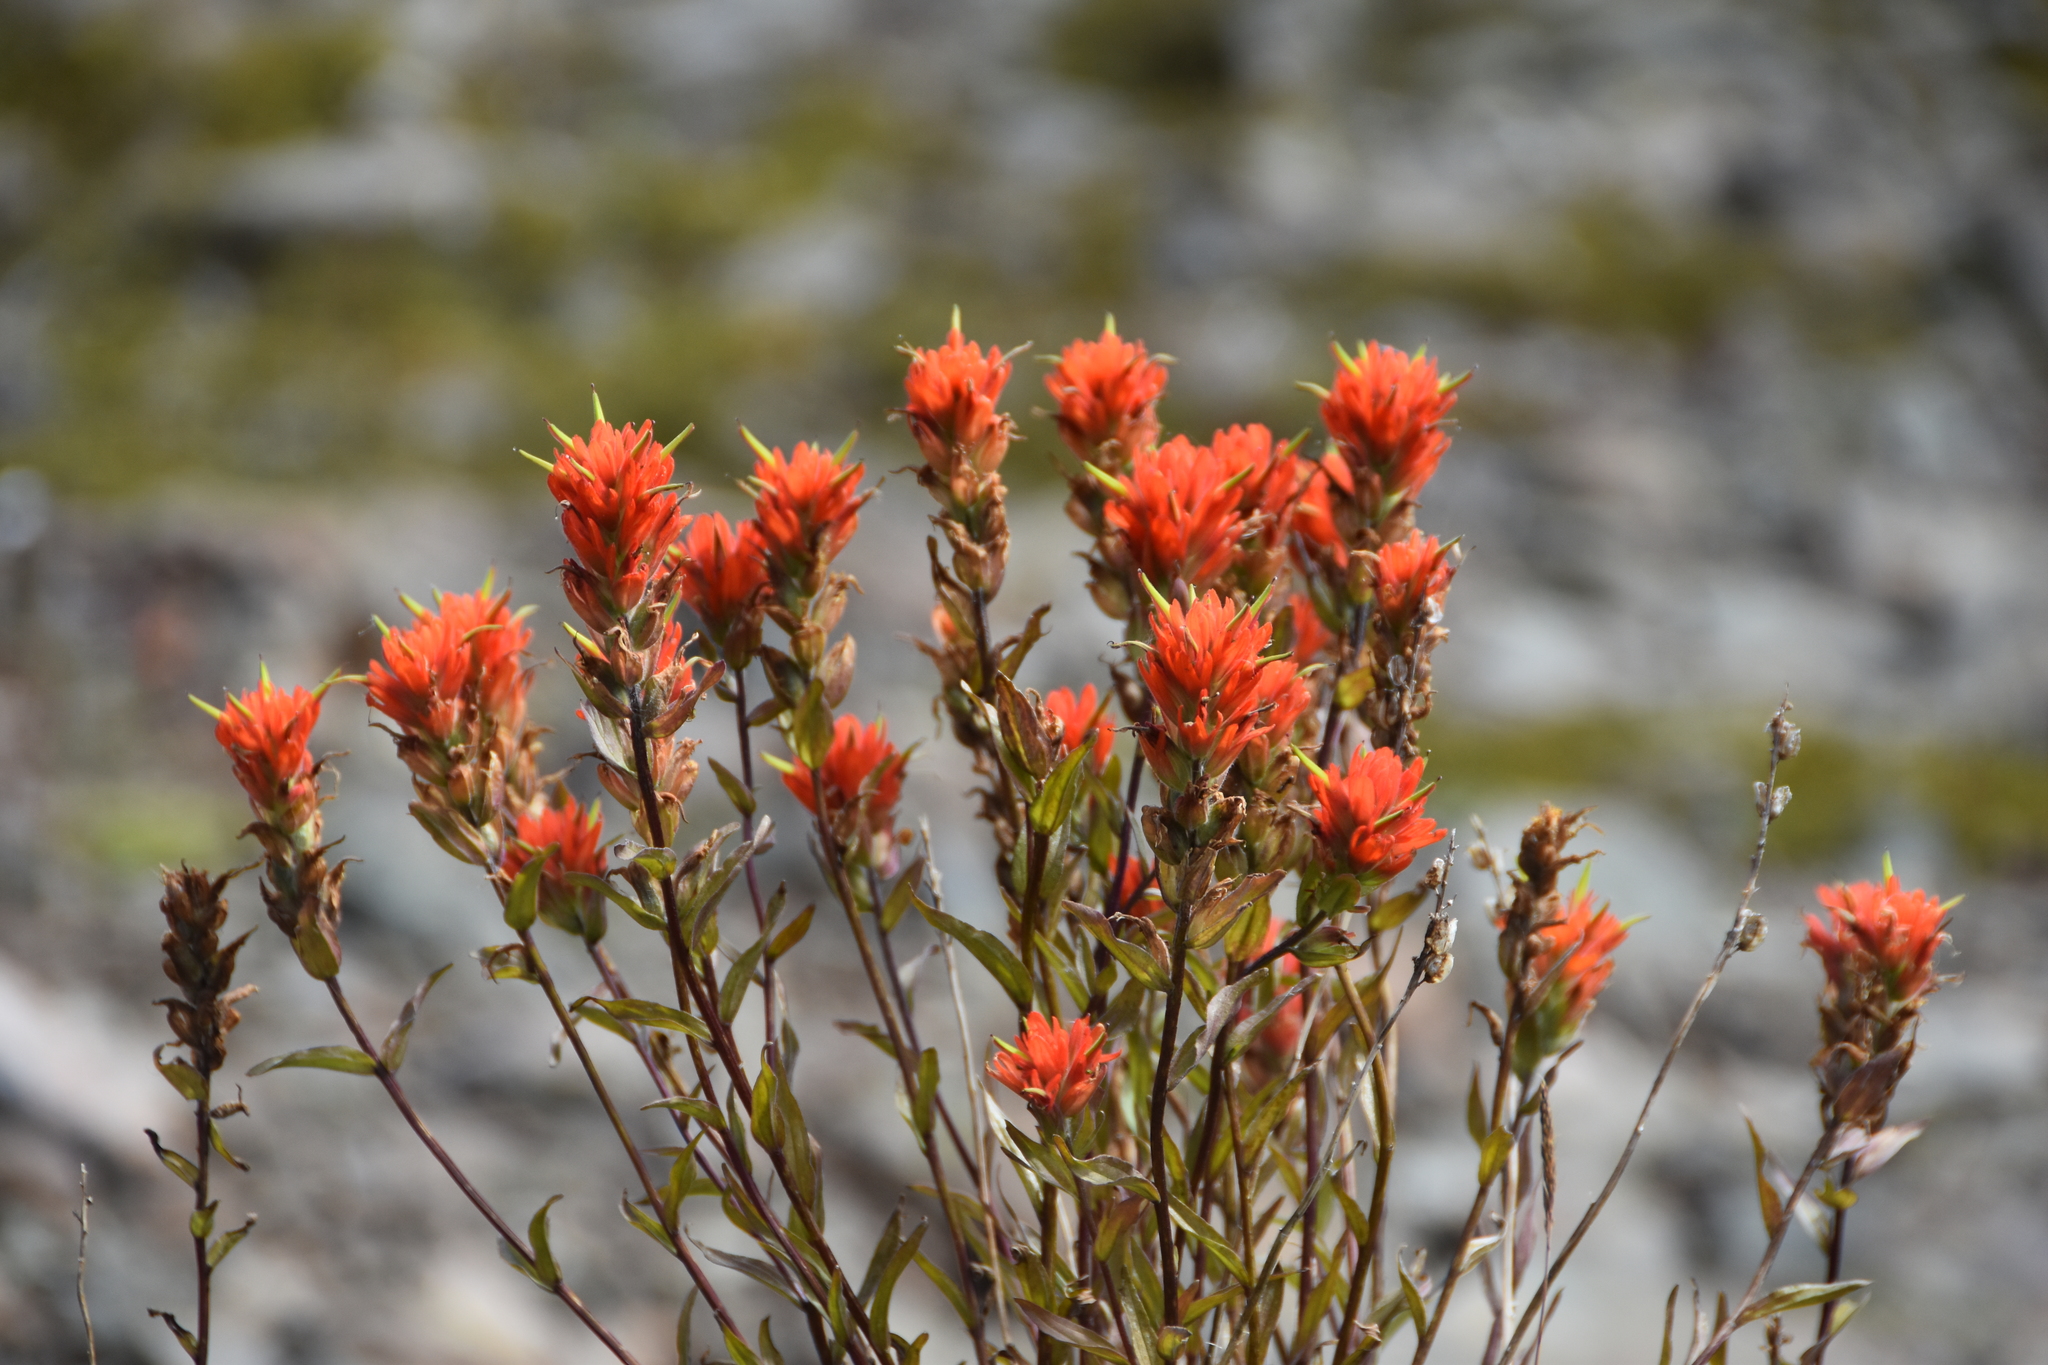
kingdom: Plantae
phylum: Tracheophyta
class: Magnoliopsida
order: Lamiales
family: Orobanchaceae
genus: Castilleja
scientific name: Castilleja miniata
